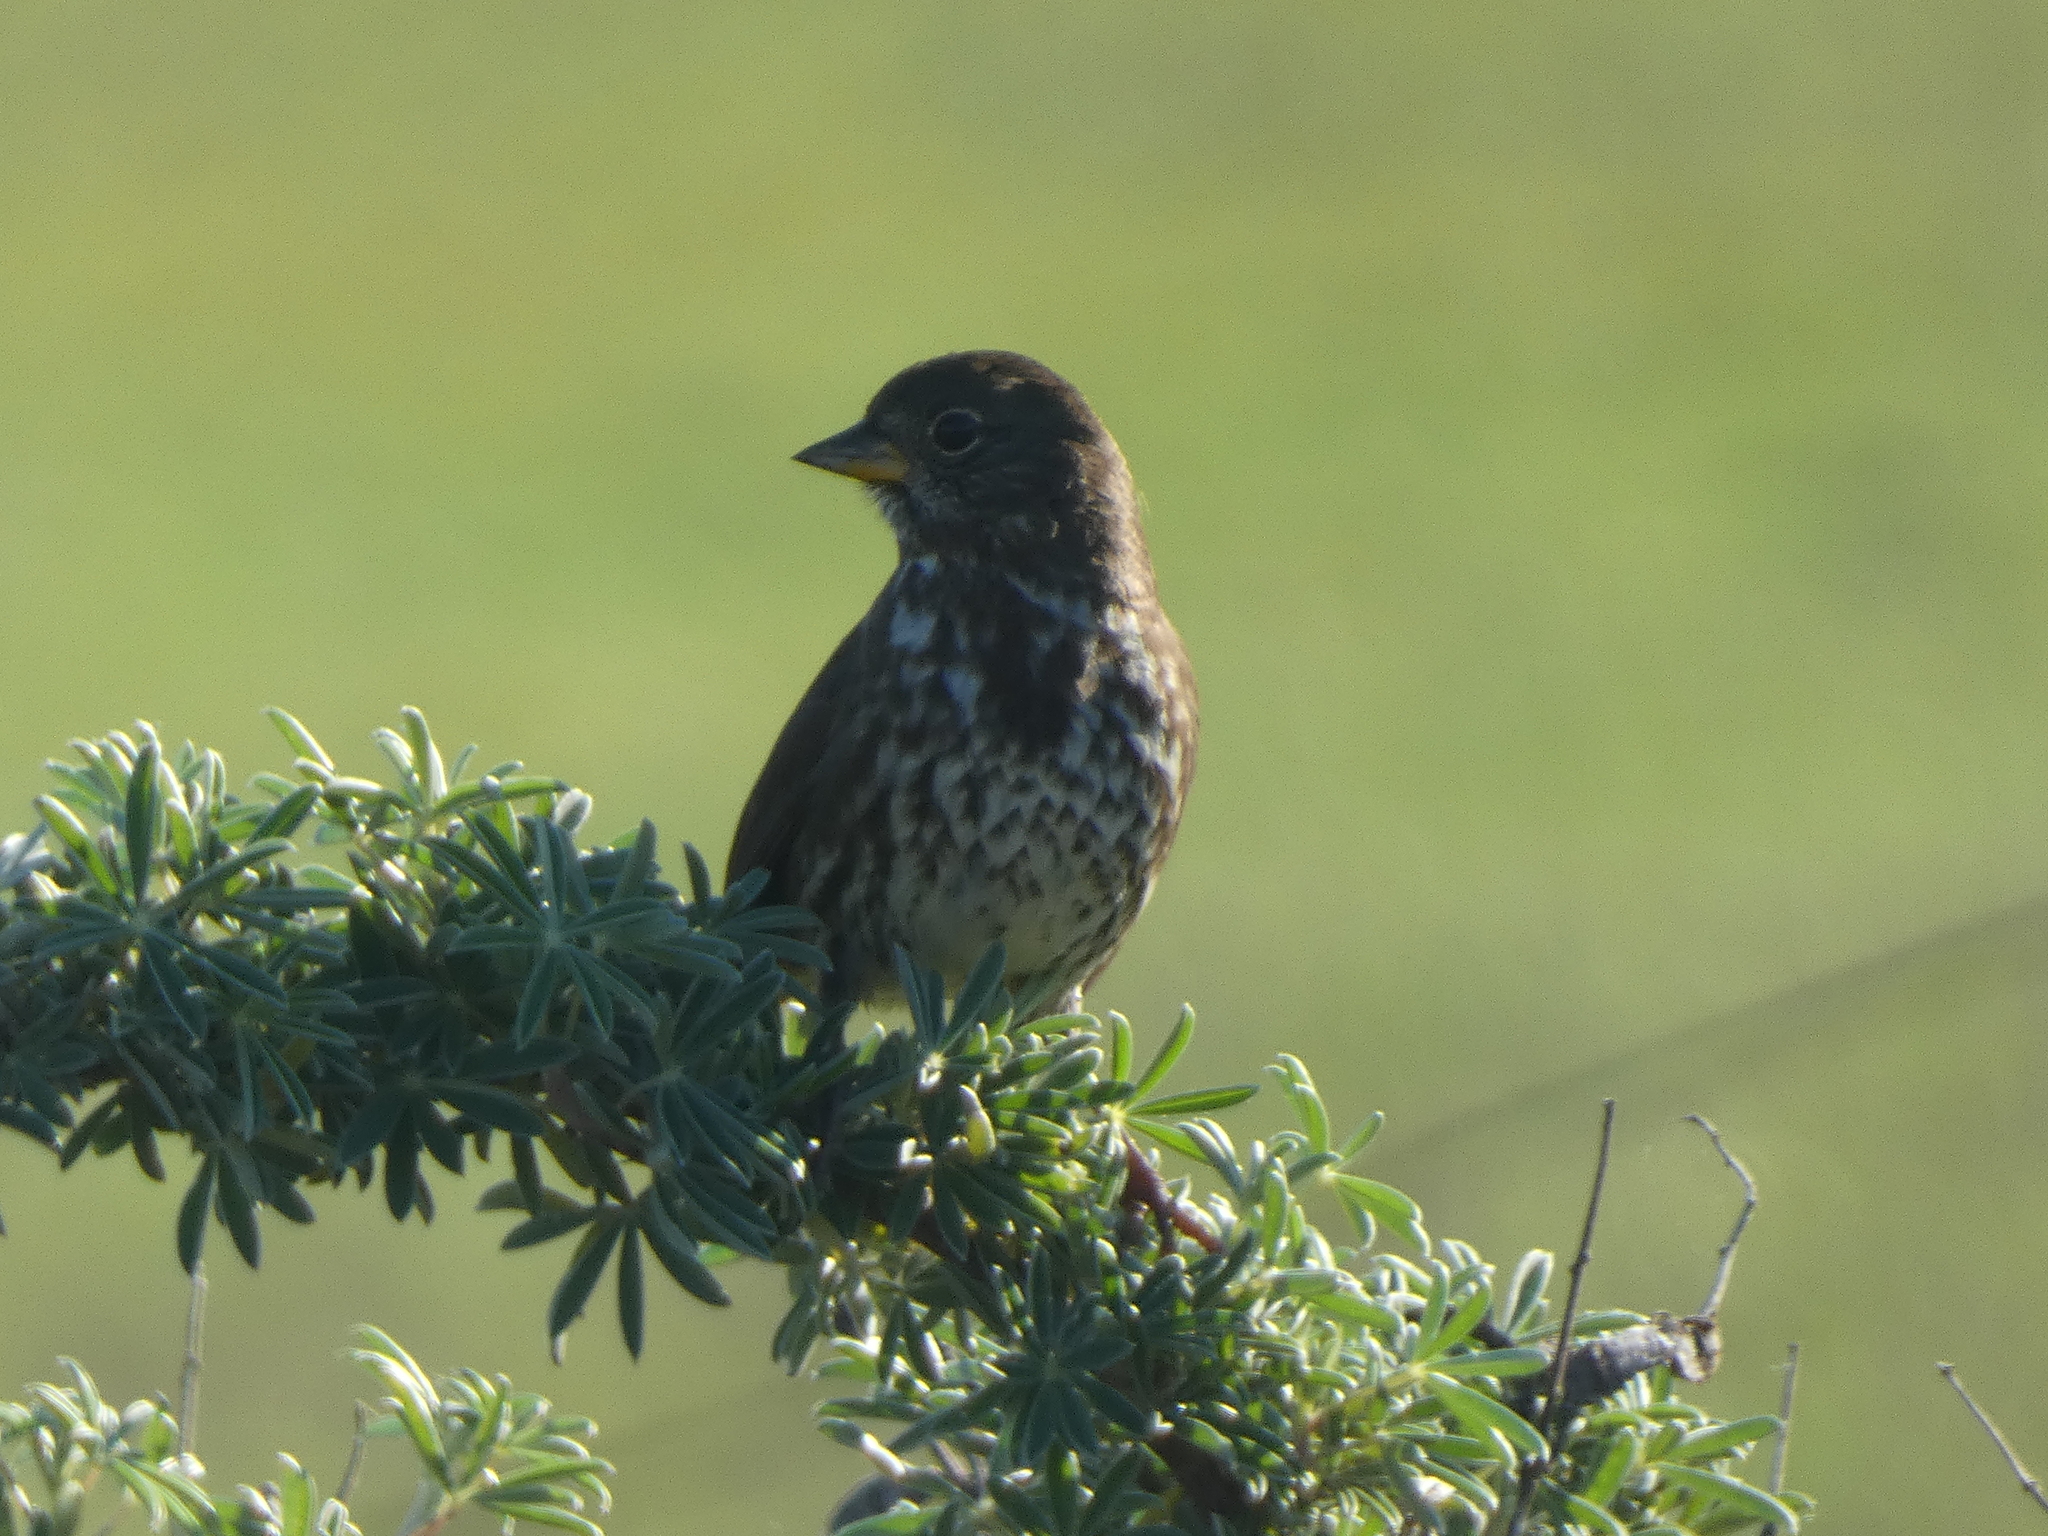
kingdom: Animalia
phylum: Chordata
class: Aves
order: Passeriformes
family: Passerellidae
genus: Passerella
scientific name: Passerella iliaca
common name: Fox sparrow
